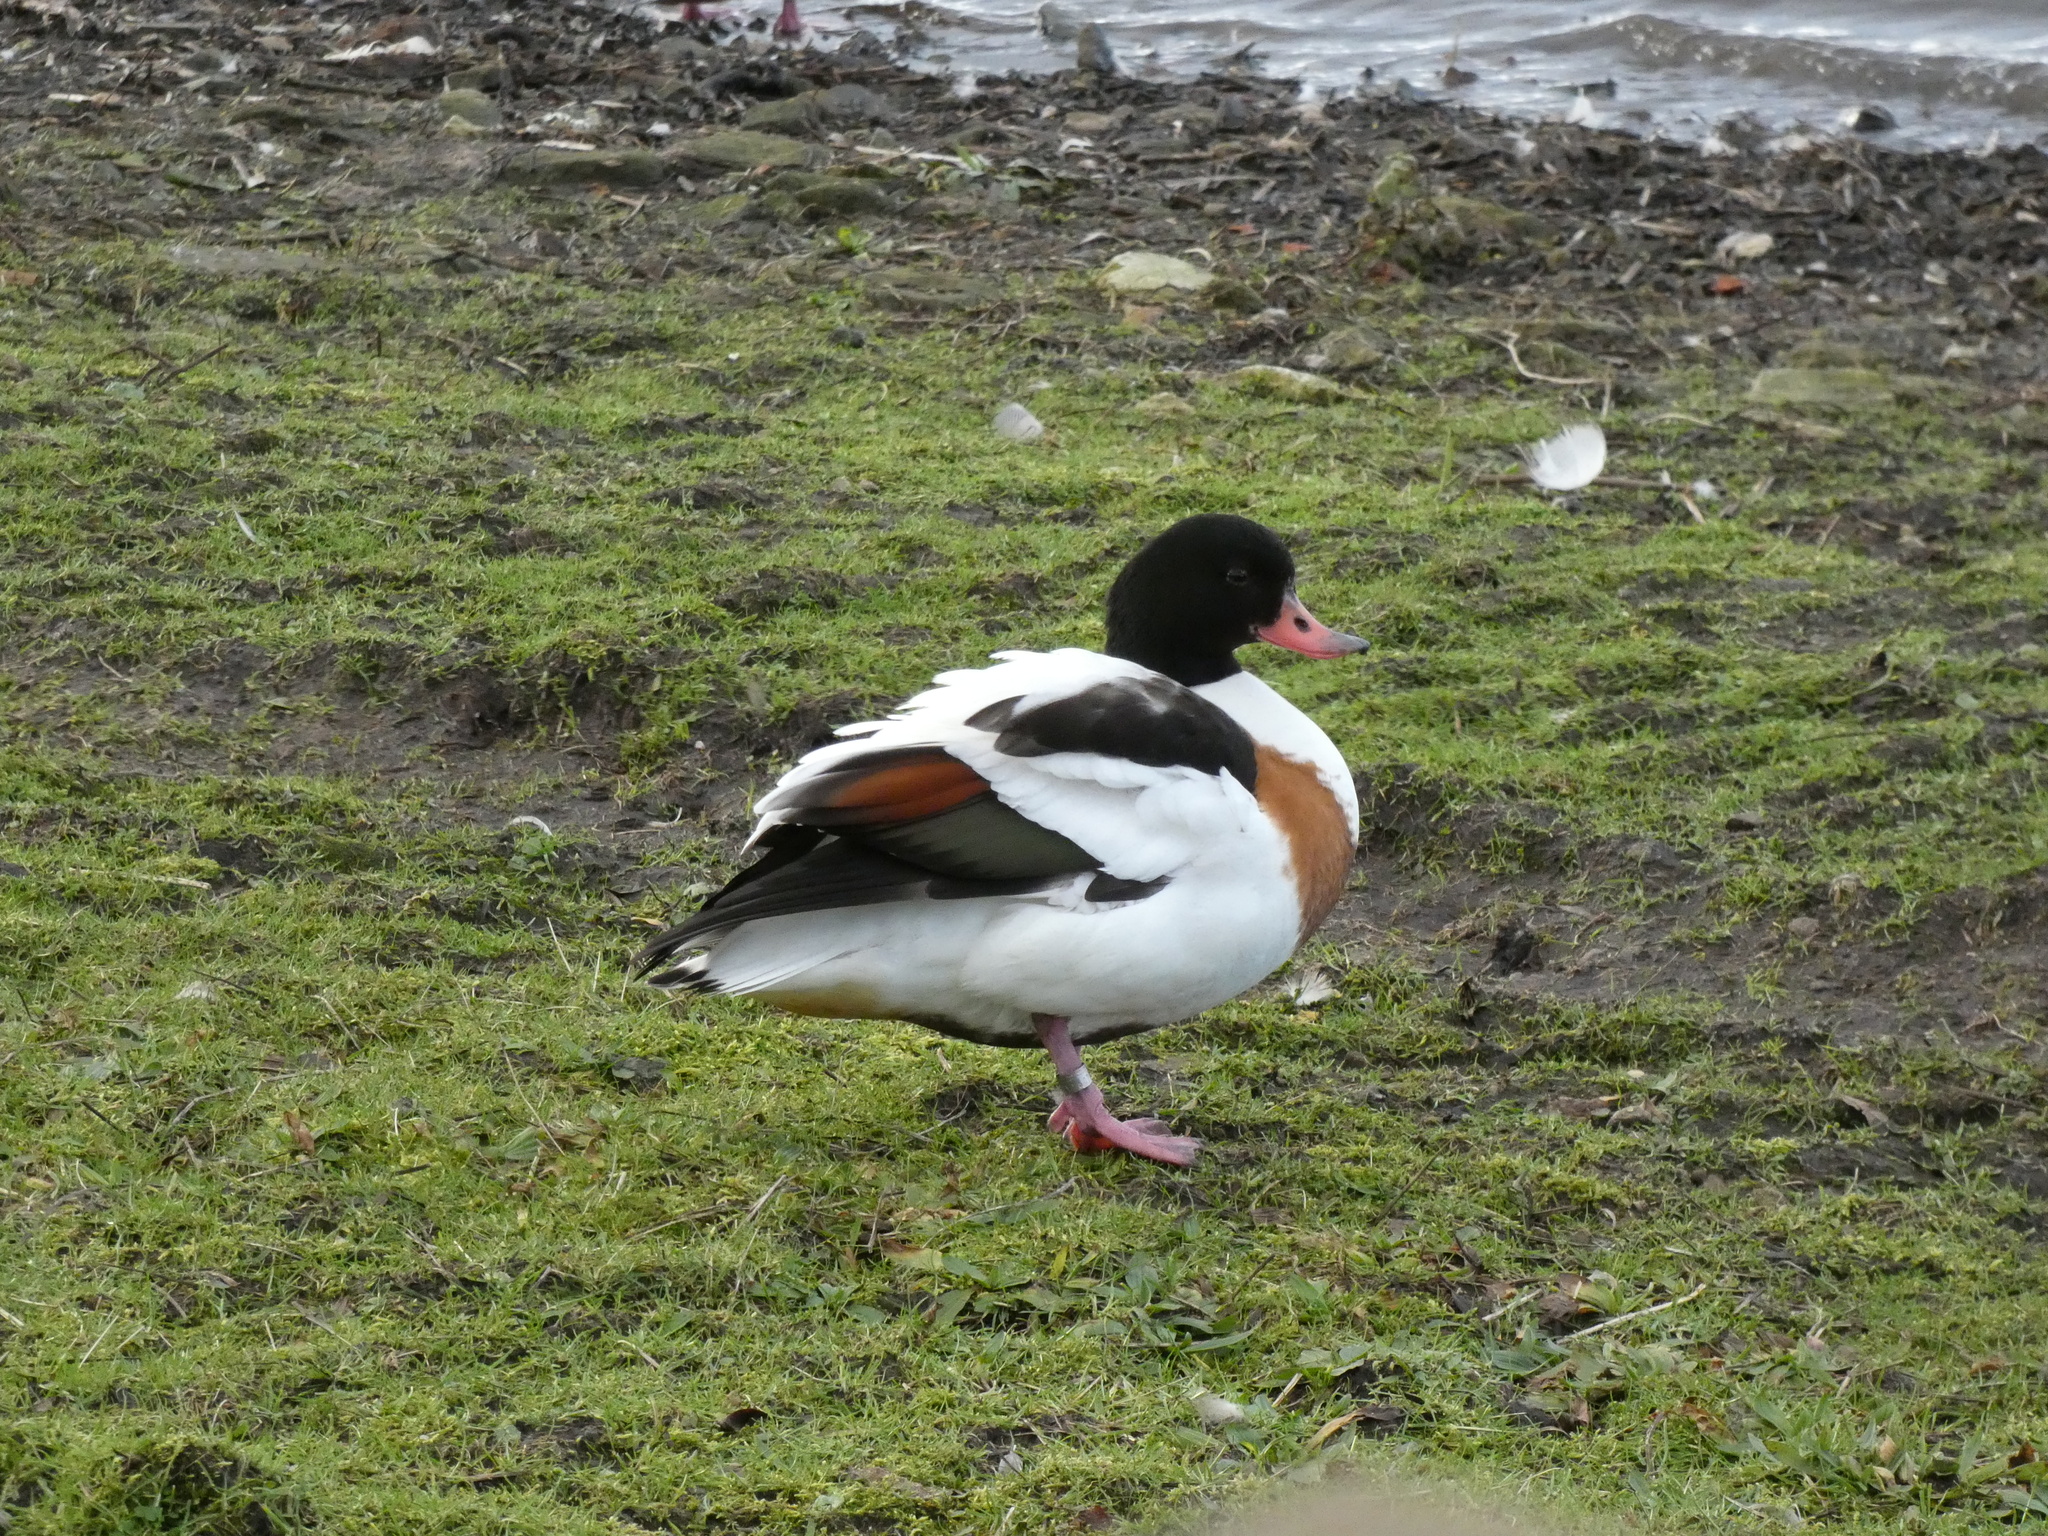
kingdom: Animalia
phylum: Chordata
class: Aves
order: Anseriformes
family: Anatidae
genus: Tadorna
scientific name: Tadorna tadorna
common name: Common shelduck
